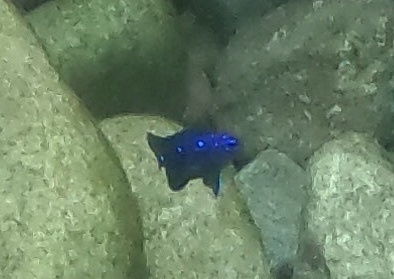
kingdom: Animalia
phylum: Chordata
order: Perciformes
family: Pomacentridae
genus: Microspathodon
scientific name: Microspathodon dorsalis
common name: Giant damselfish
